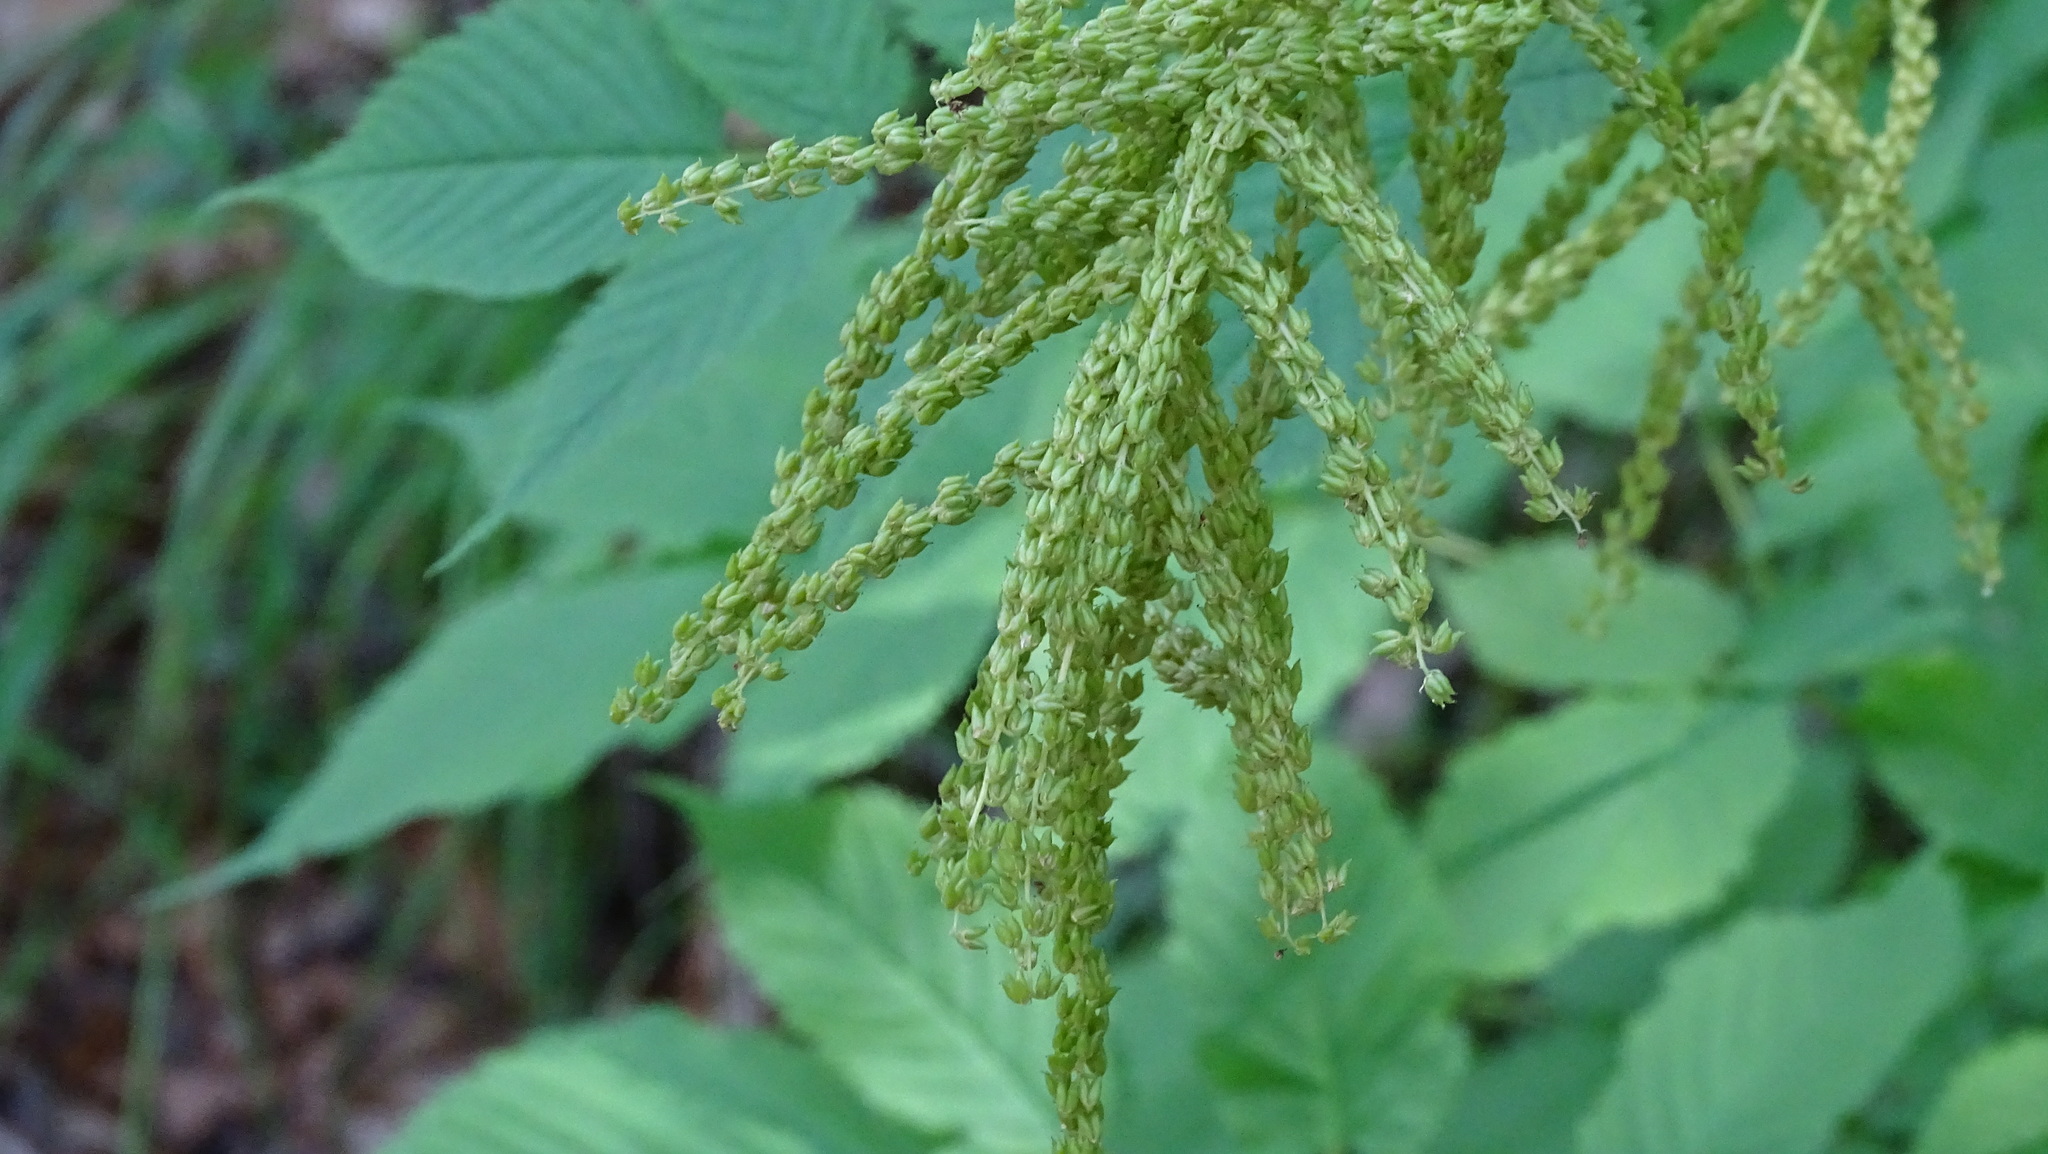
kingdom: Plantae
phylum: Tracheophyta
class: Magnoliopsida
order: Rosales
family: Rosaceae
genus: Aruncus
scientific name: Aruncus dioicus
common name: Buck's-beard
